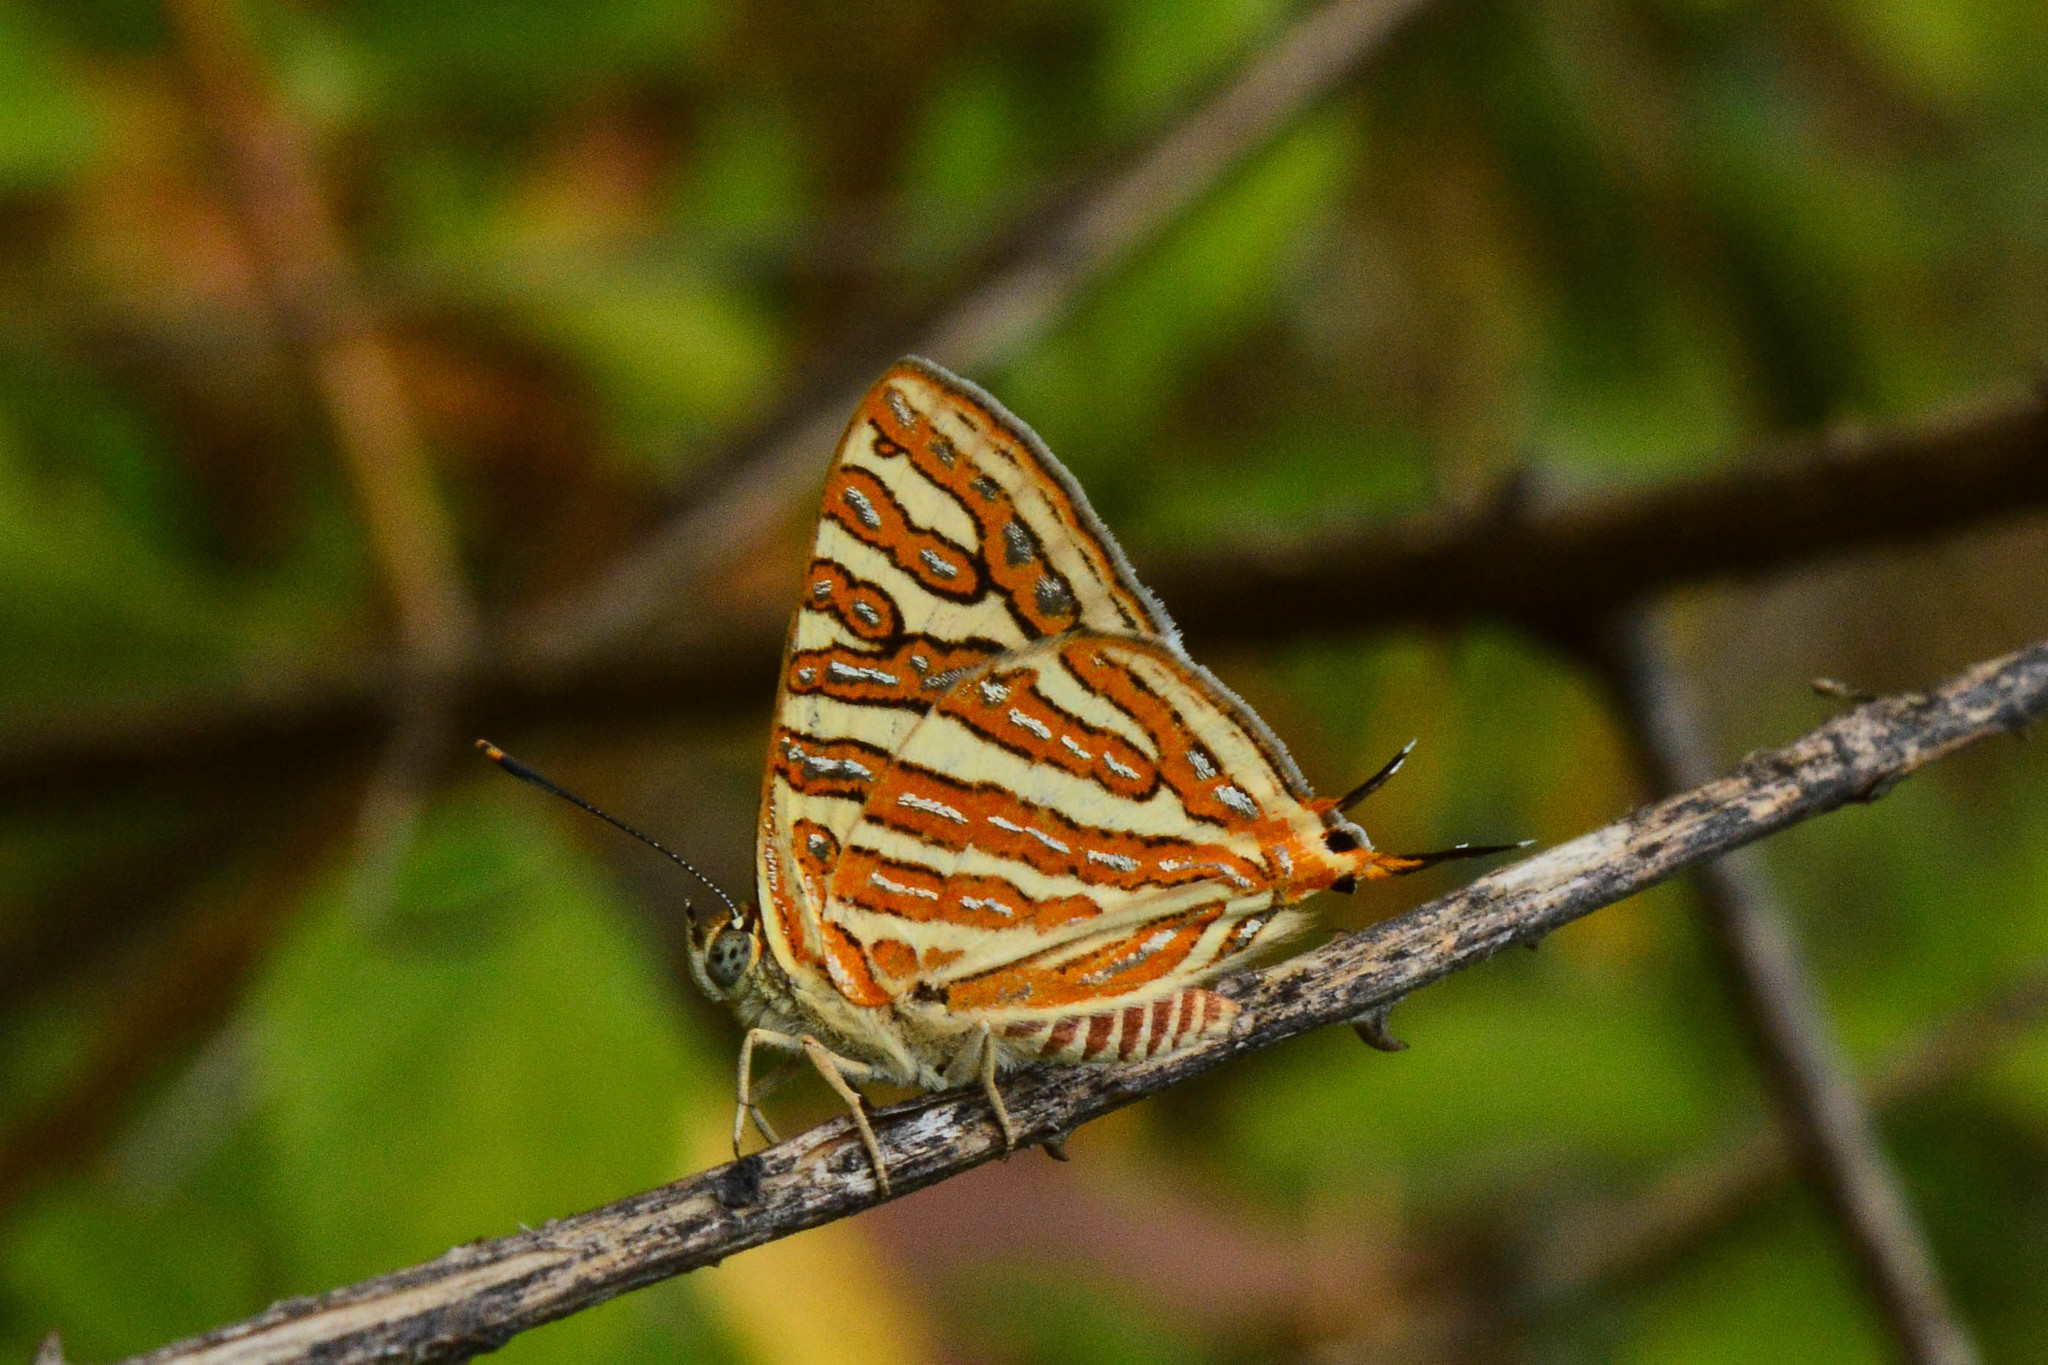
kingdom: Animalia
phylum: Arthropoda
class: Insecta
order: Lepidoptera
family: Lycaenidae
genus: Cigaritis
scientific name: Cigaritis vulcanus
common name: Common silverline
